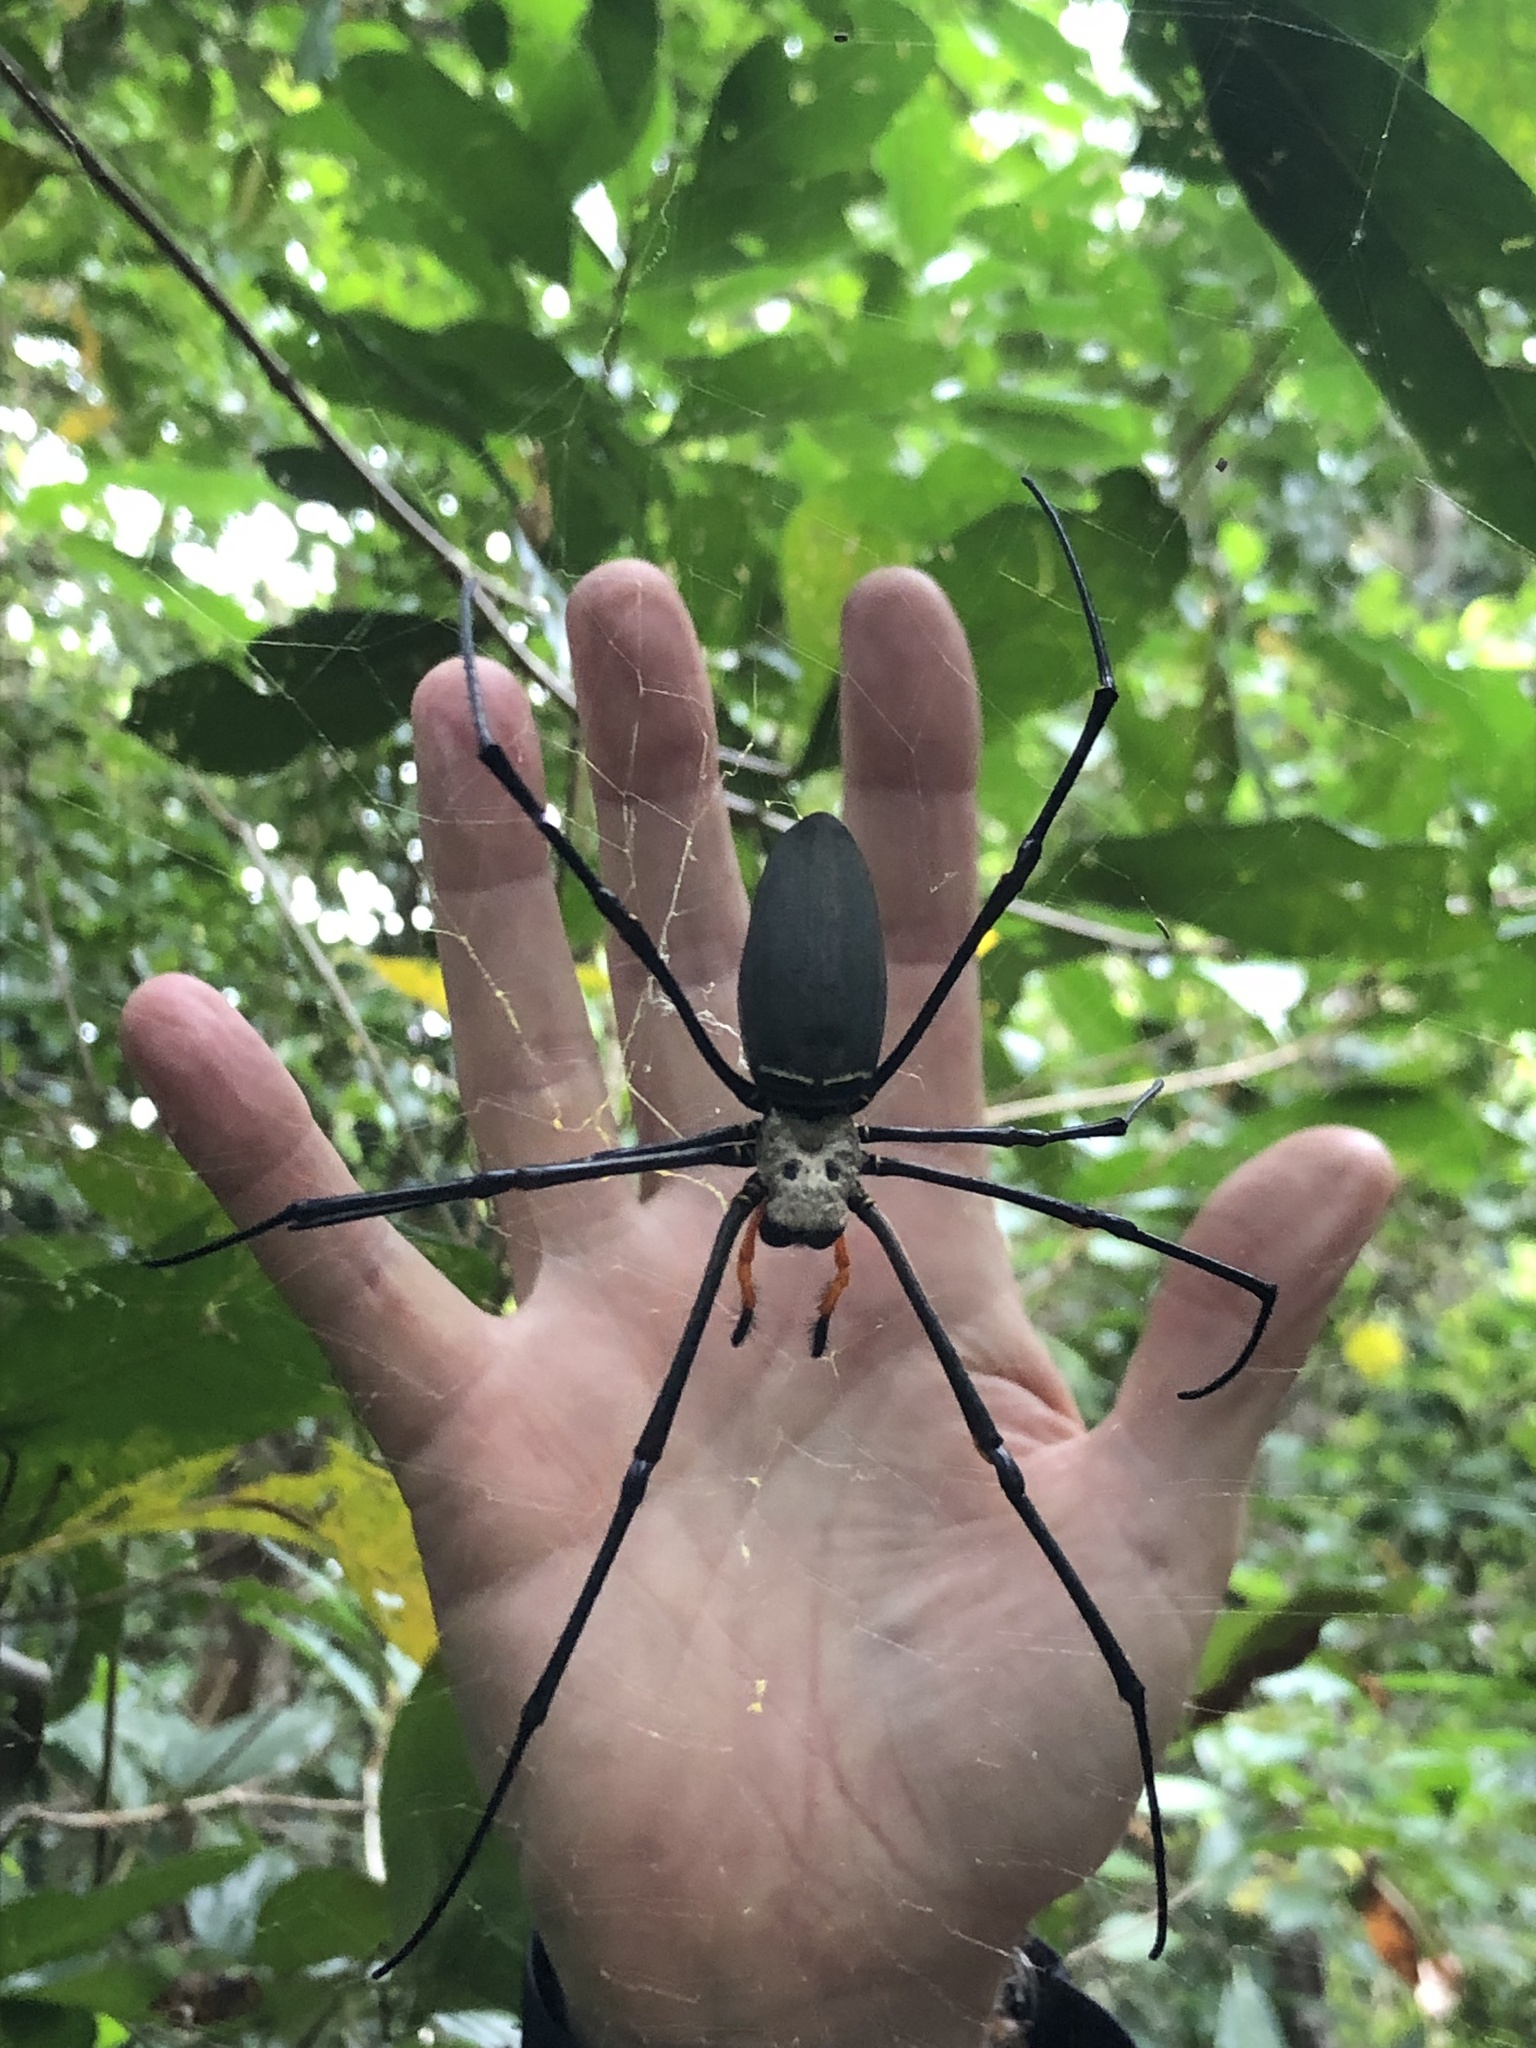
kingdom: Animalia
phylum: Arthropoda
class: Arachnida
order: Araneae
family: Araneidae
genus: Nephila
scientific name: Nephila pilipes
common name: Giant golden orb weaver
